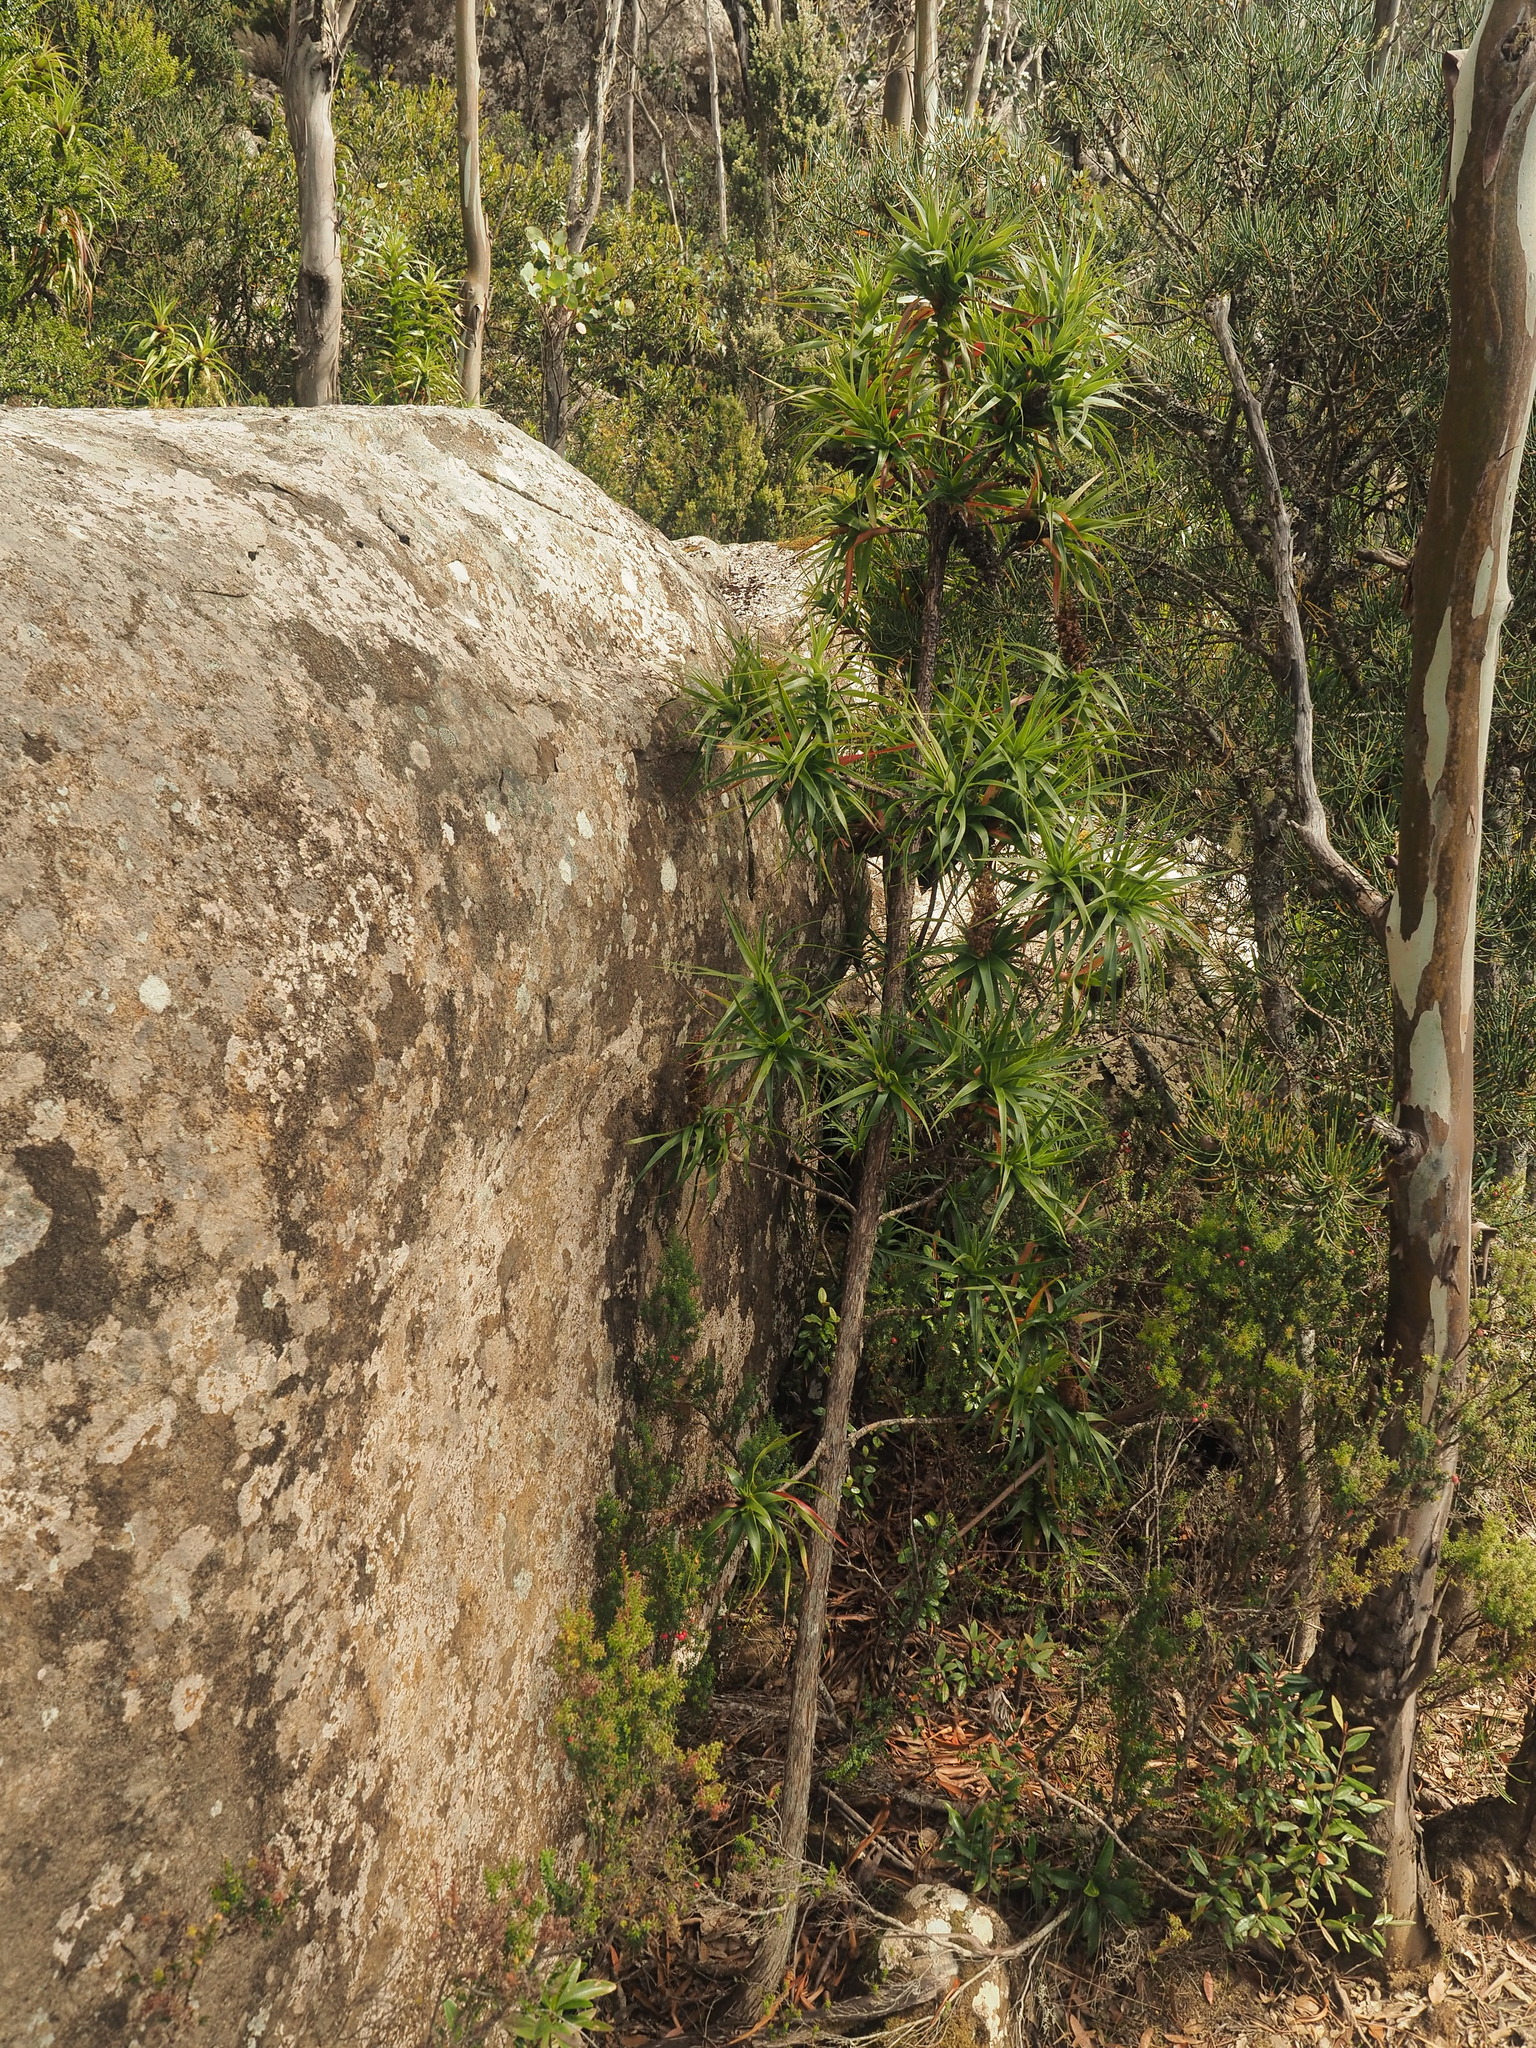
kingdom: Plantae
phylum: Tracheophyta
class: Magnoliopsida
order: Ericales
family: Ericaceae
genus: Dracophyllum
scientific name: Dracophyllum desgrazii
